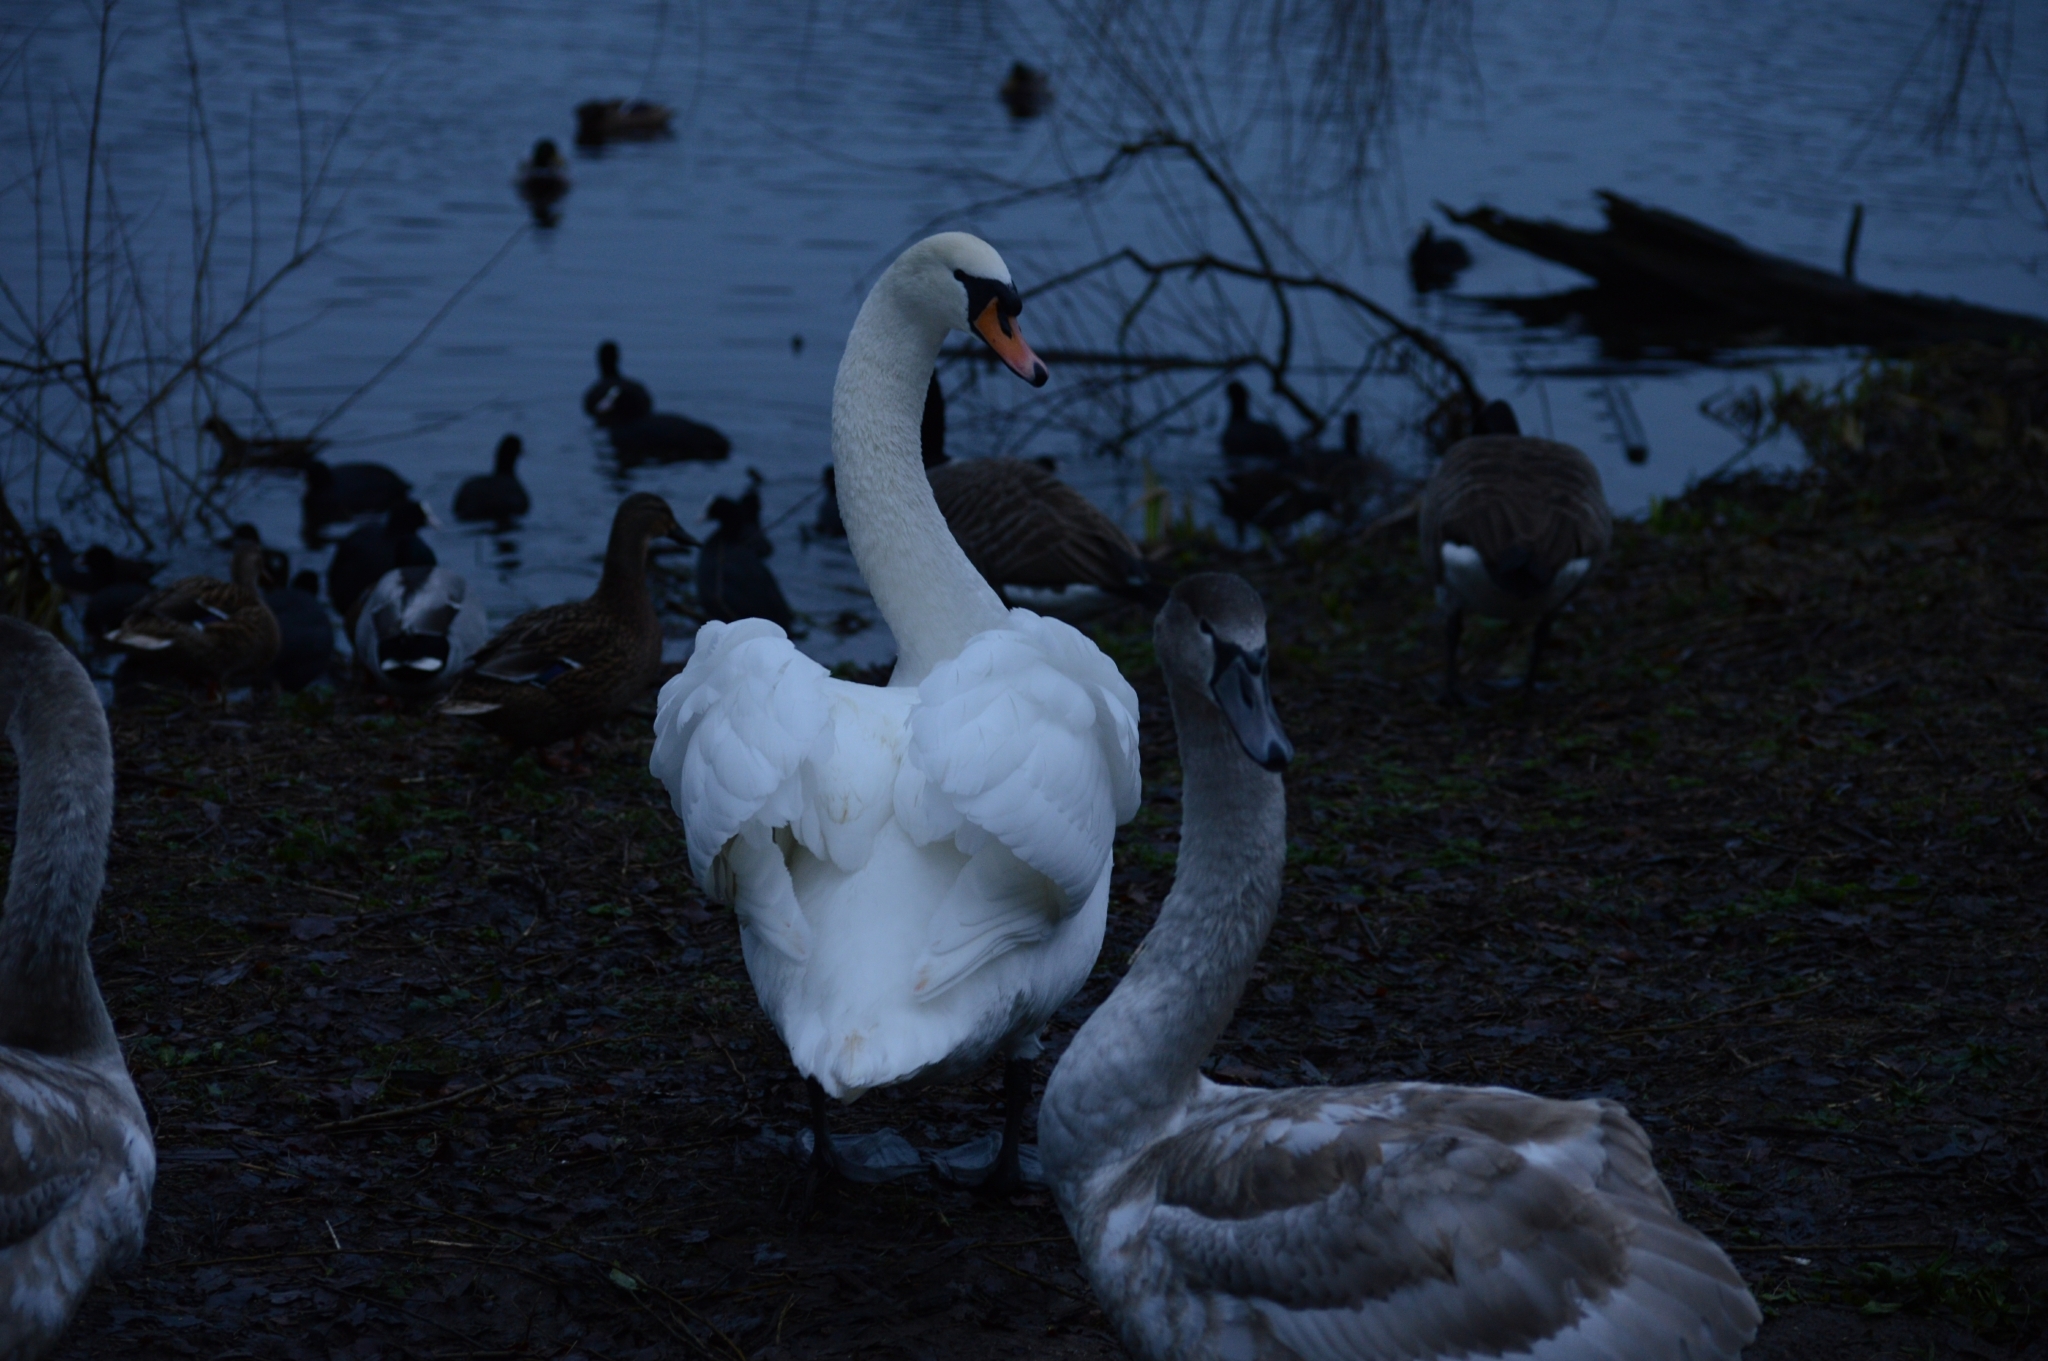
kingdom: Animalia
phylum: Chordata
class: Aves
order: Anseriformes
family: Anatidae
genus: Cygnus
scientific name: Cygnus olor
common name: Mute swan
